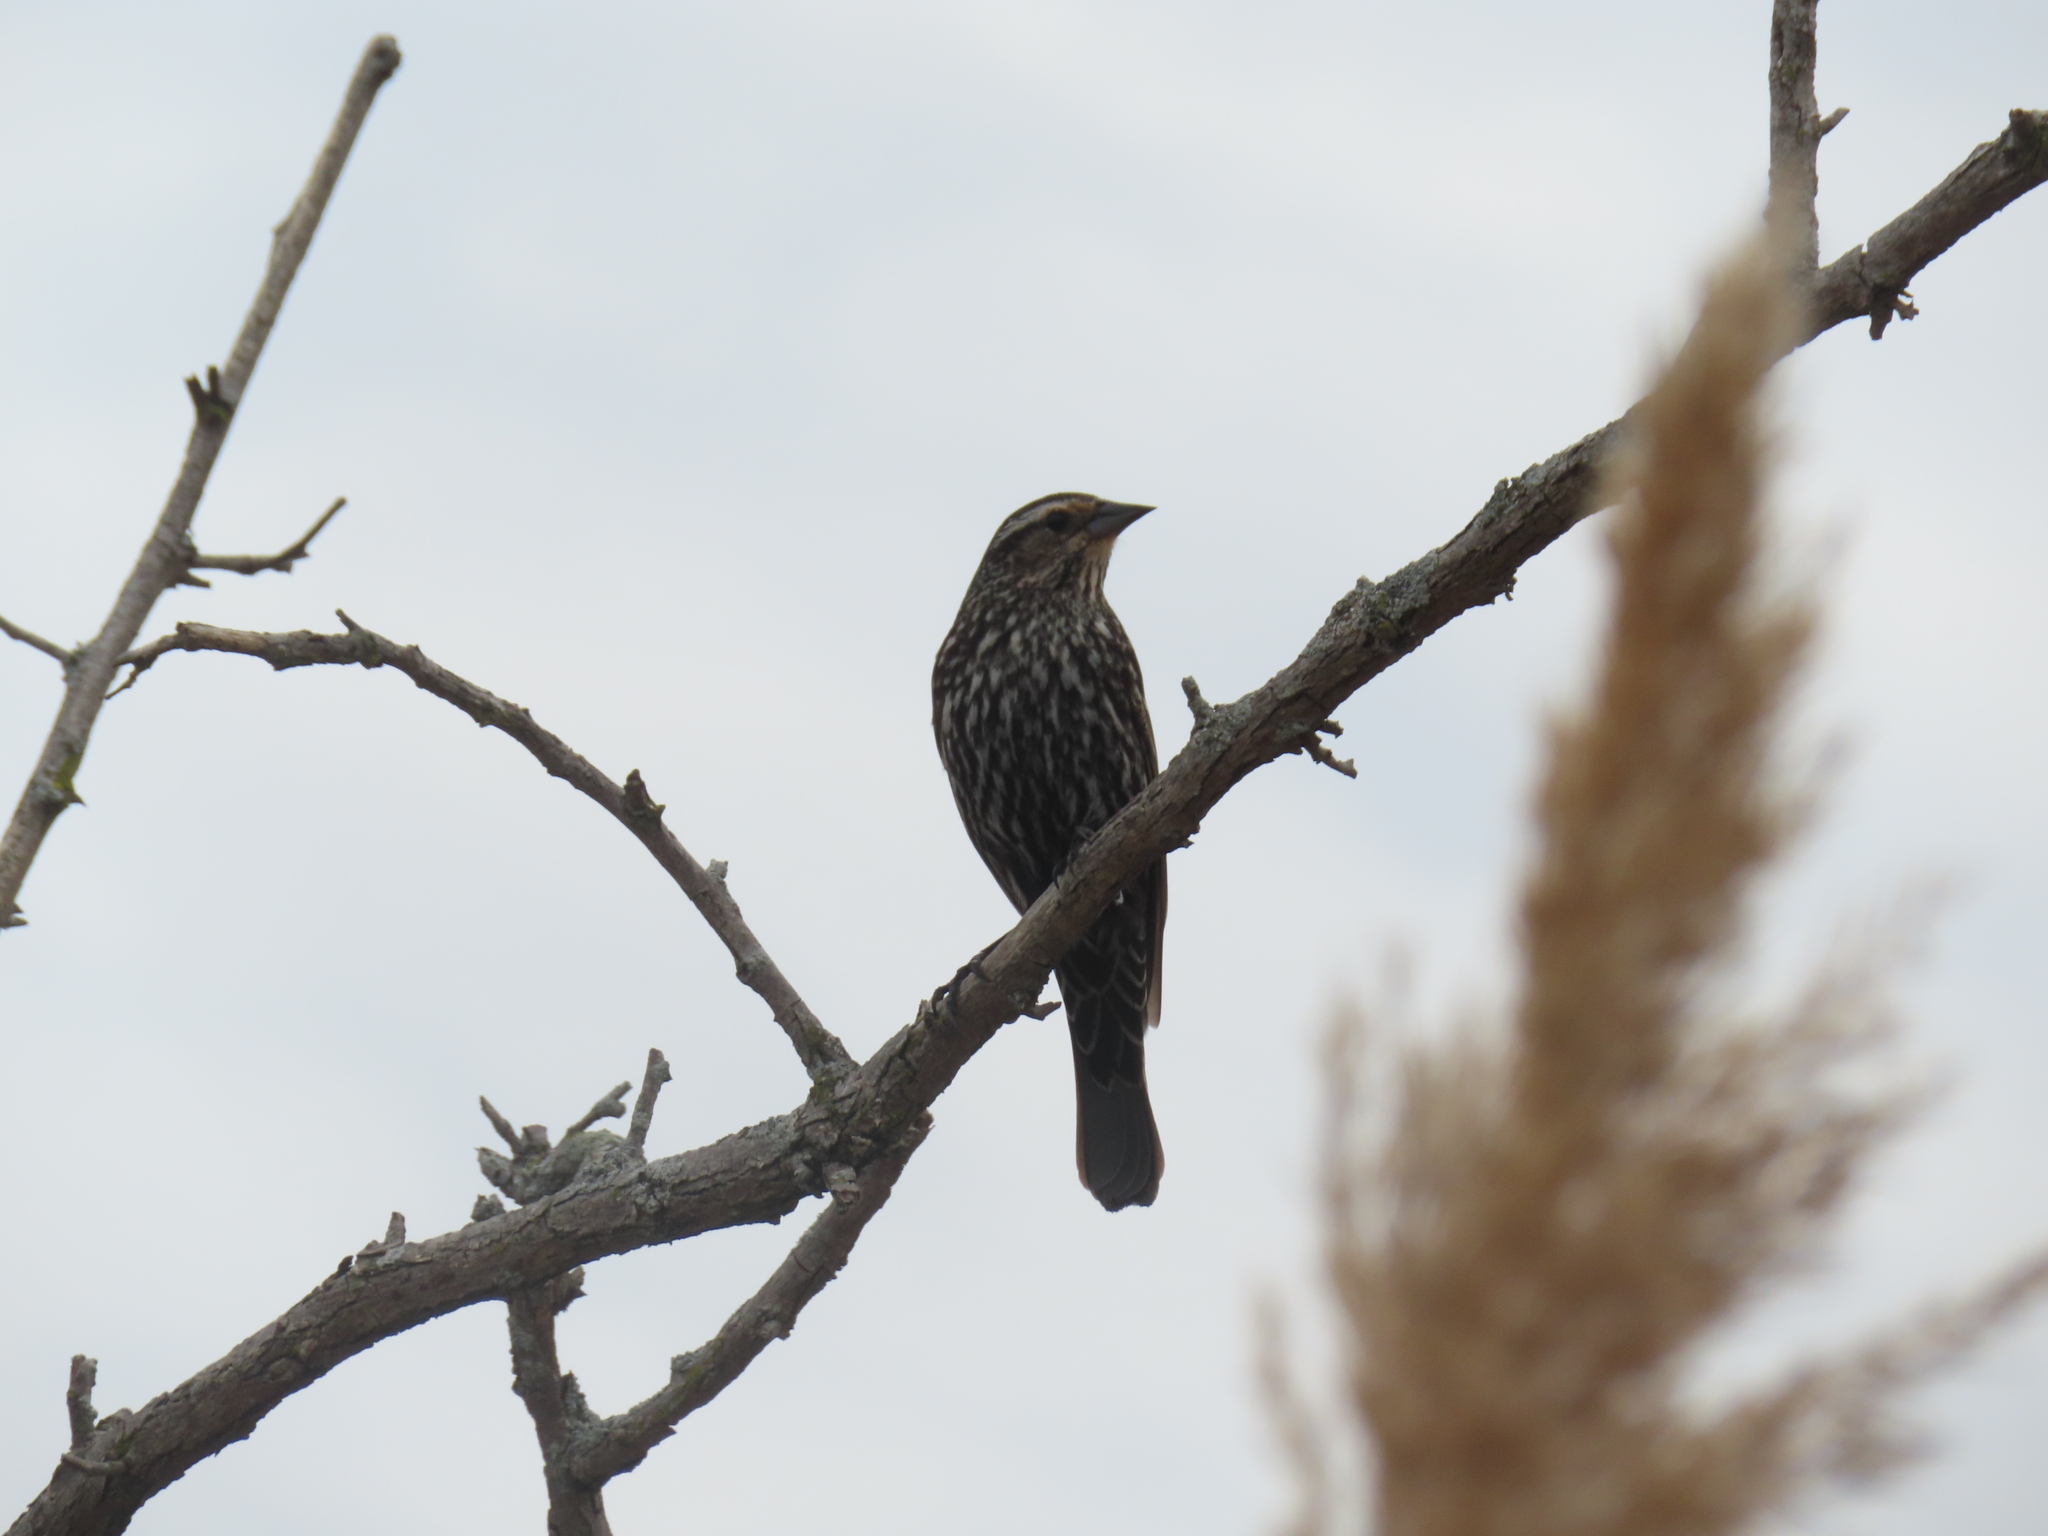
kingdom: Animalia
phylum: Chordata
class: Aves
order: Passeriformes
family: Icteridae
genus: Agelaius
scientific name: Agelaius phoeniceus
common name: Red-winged blackbird
